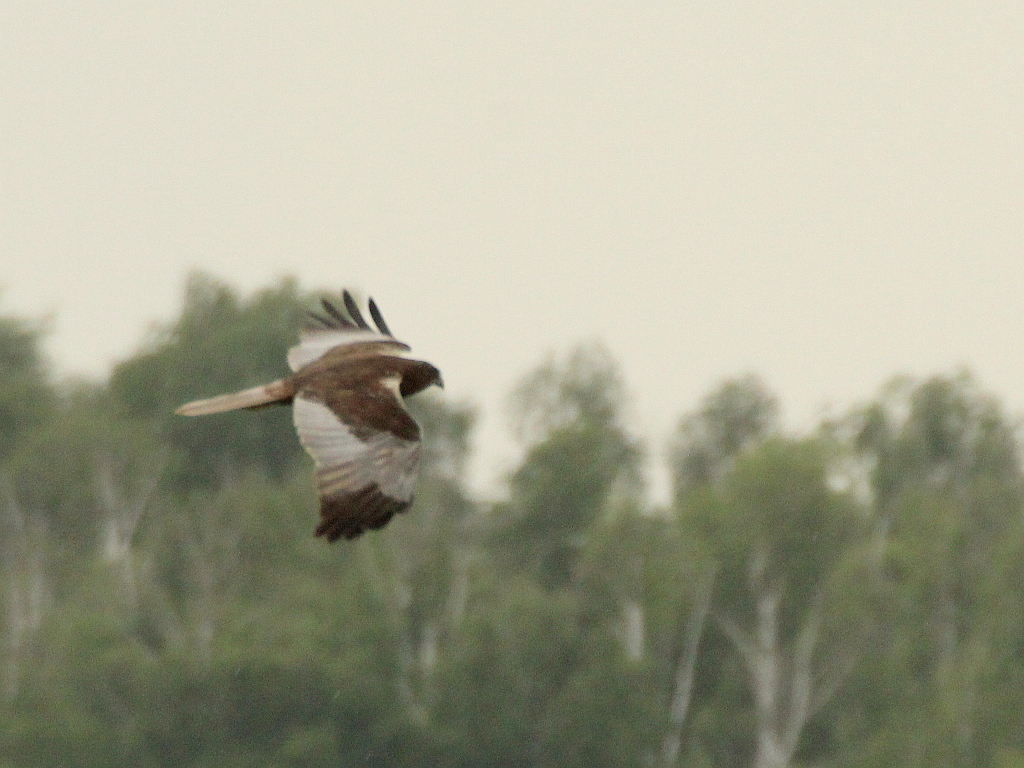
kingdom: Animalia
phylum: Chordata
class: Aves
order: Accipitriformes
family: Accipitridae
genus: Circus
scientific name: Circus aeruginosus
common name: Western marsh harrier
